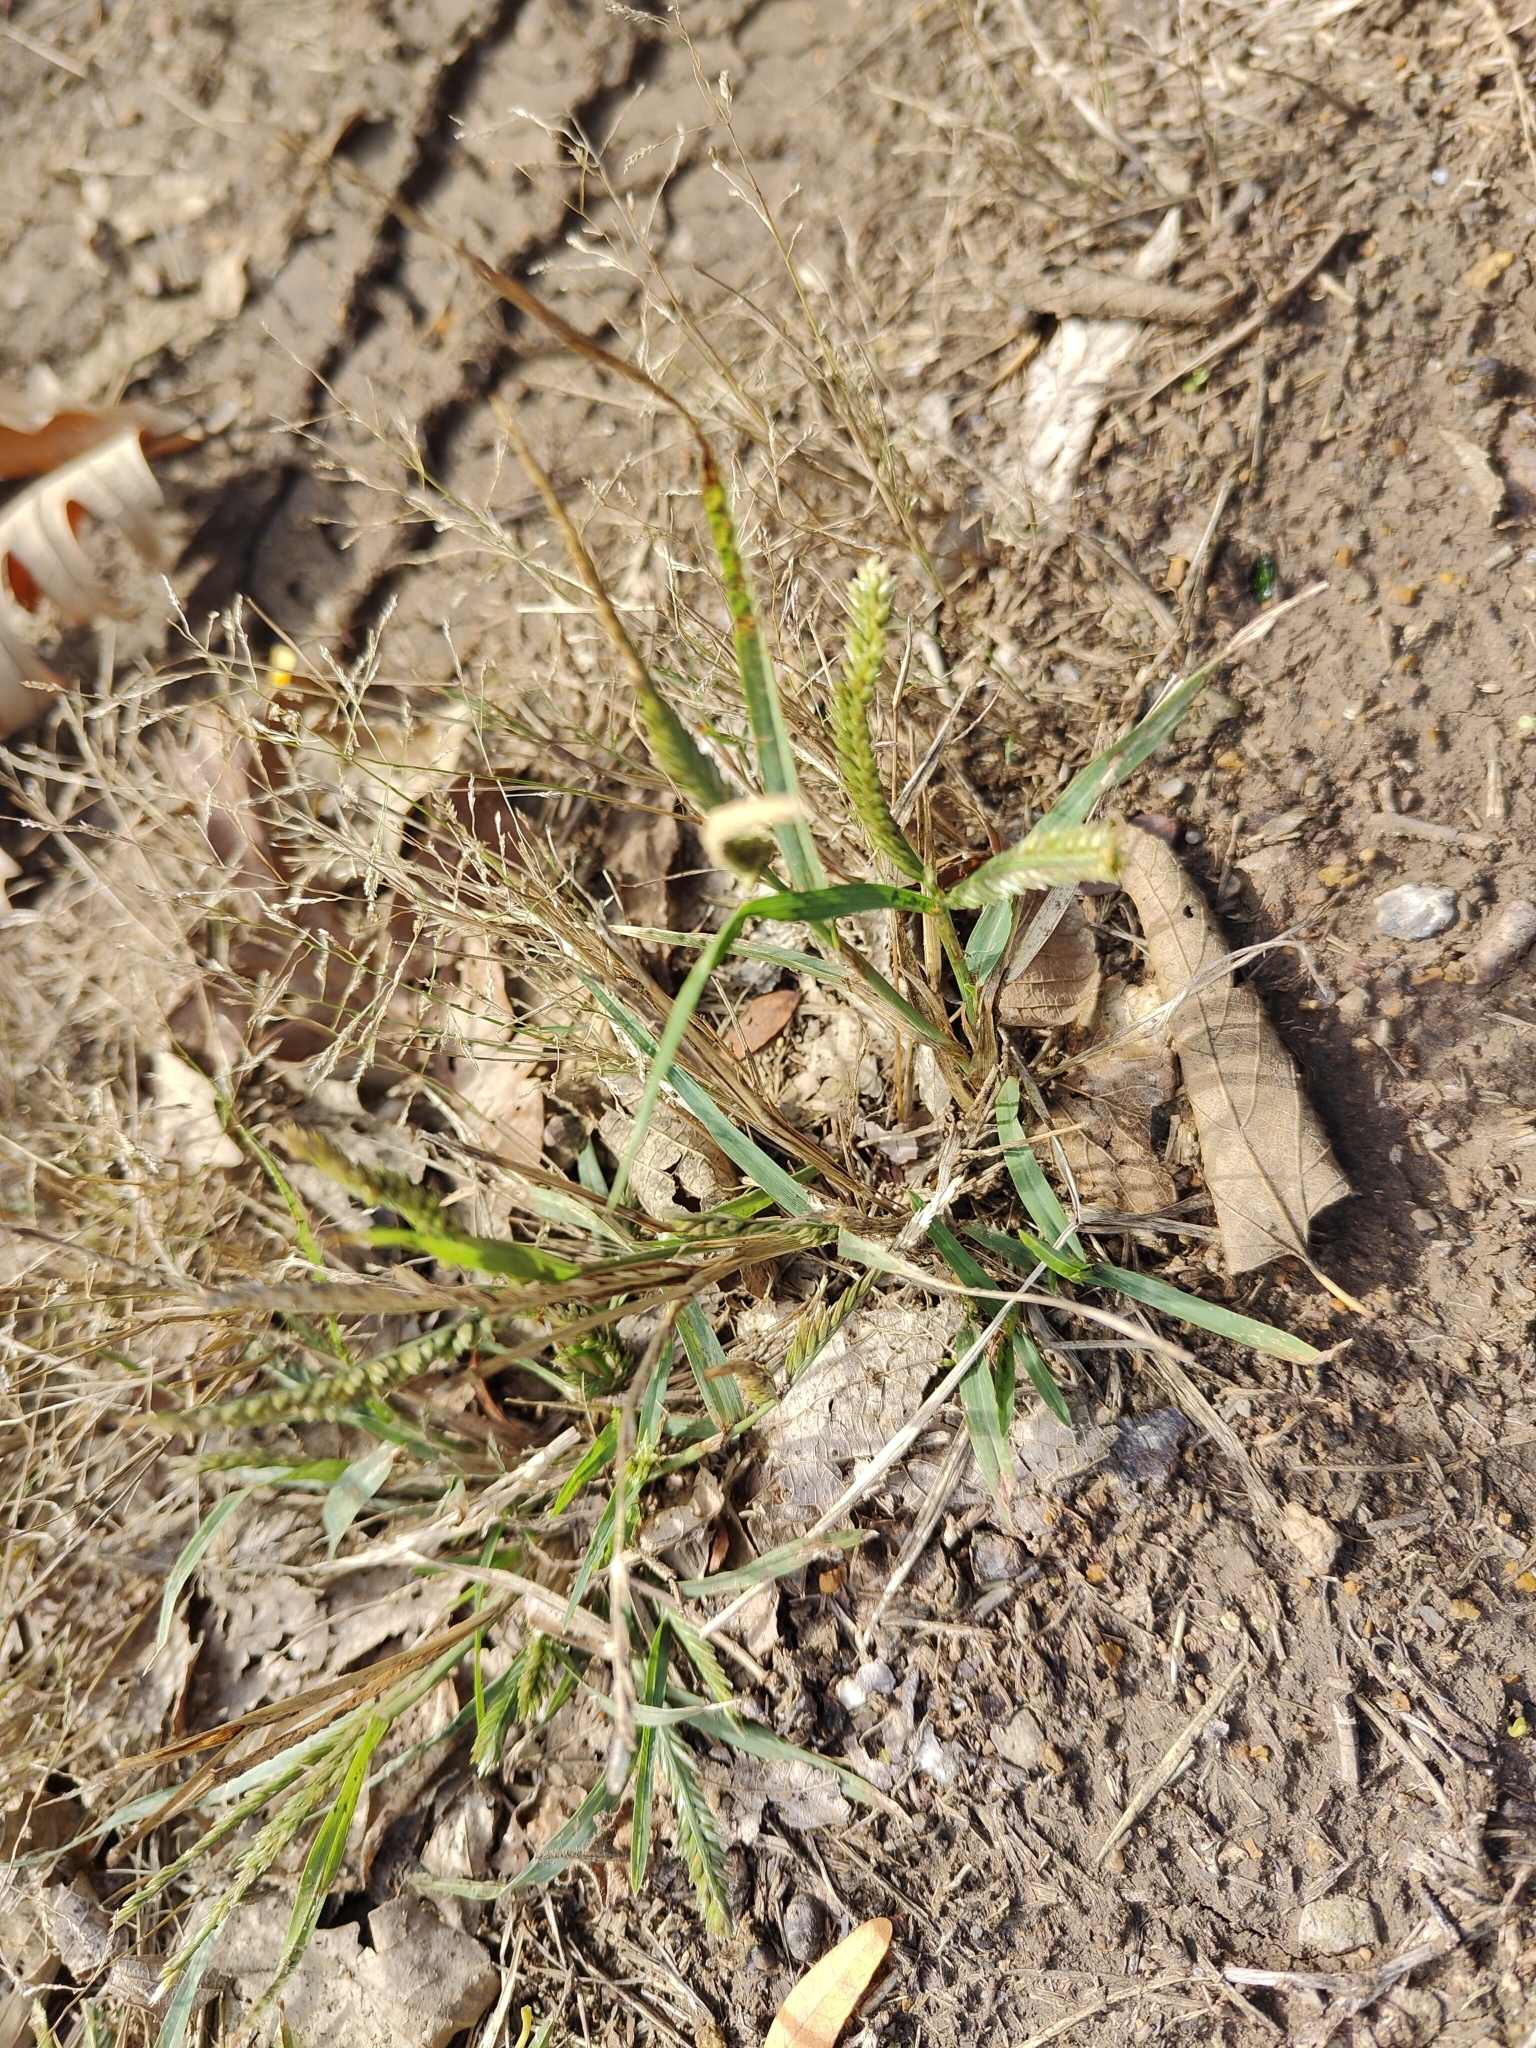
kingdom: Plantae
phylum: Tracheophyta
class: Liliopsida
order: Poales
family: Poaceae
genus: Eleusine
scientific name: Eleusine indica
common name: Yard-grass
